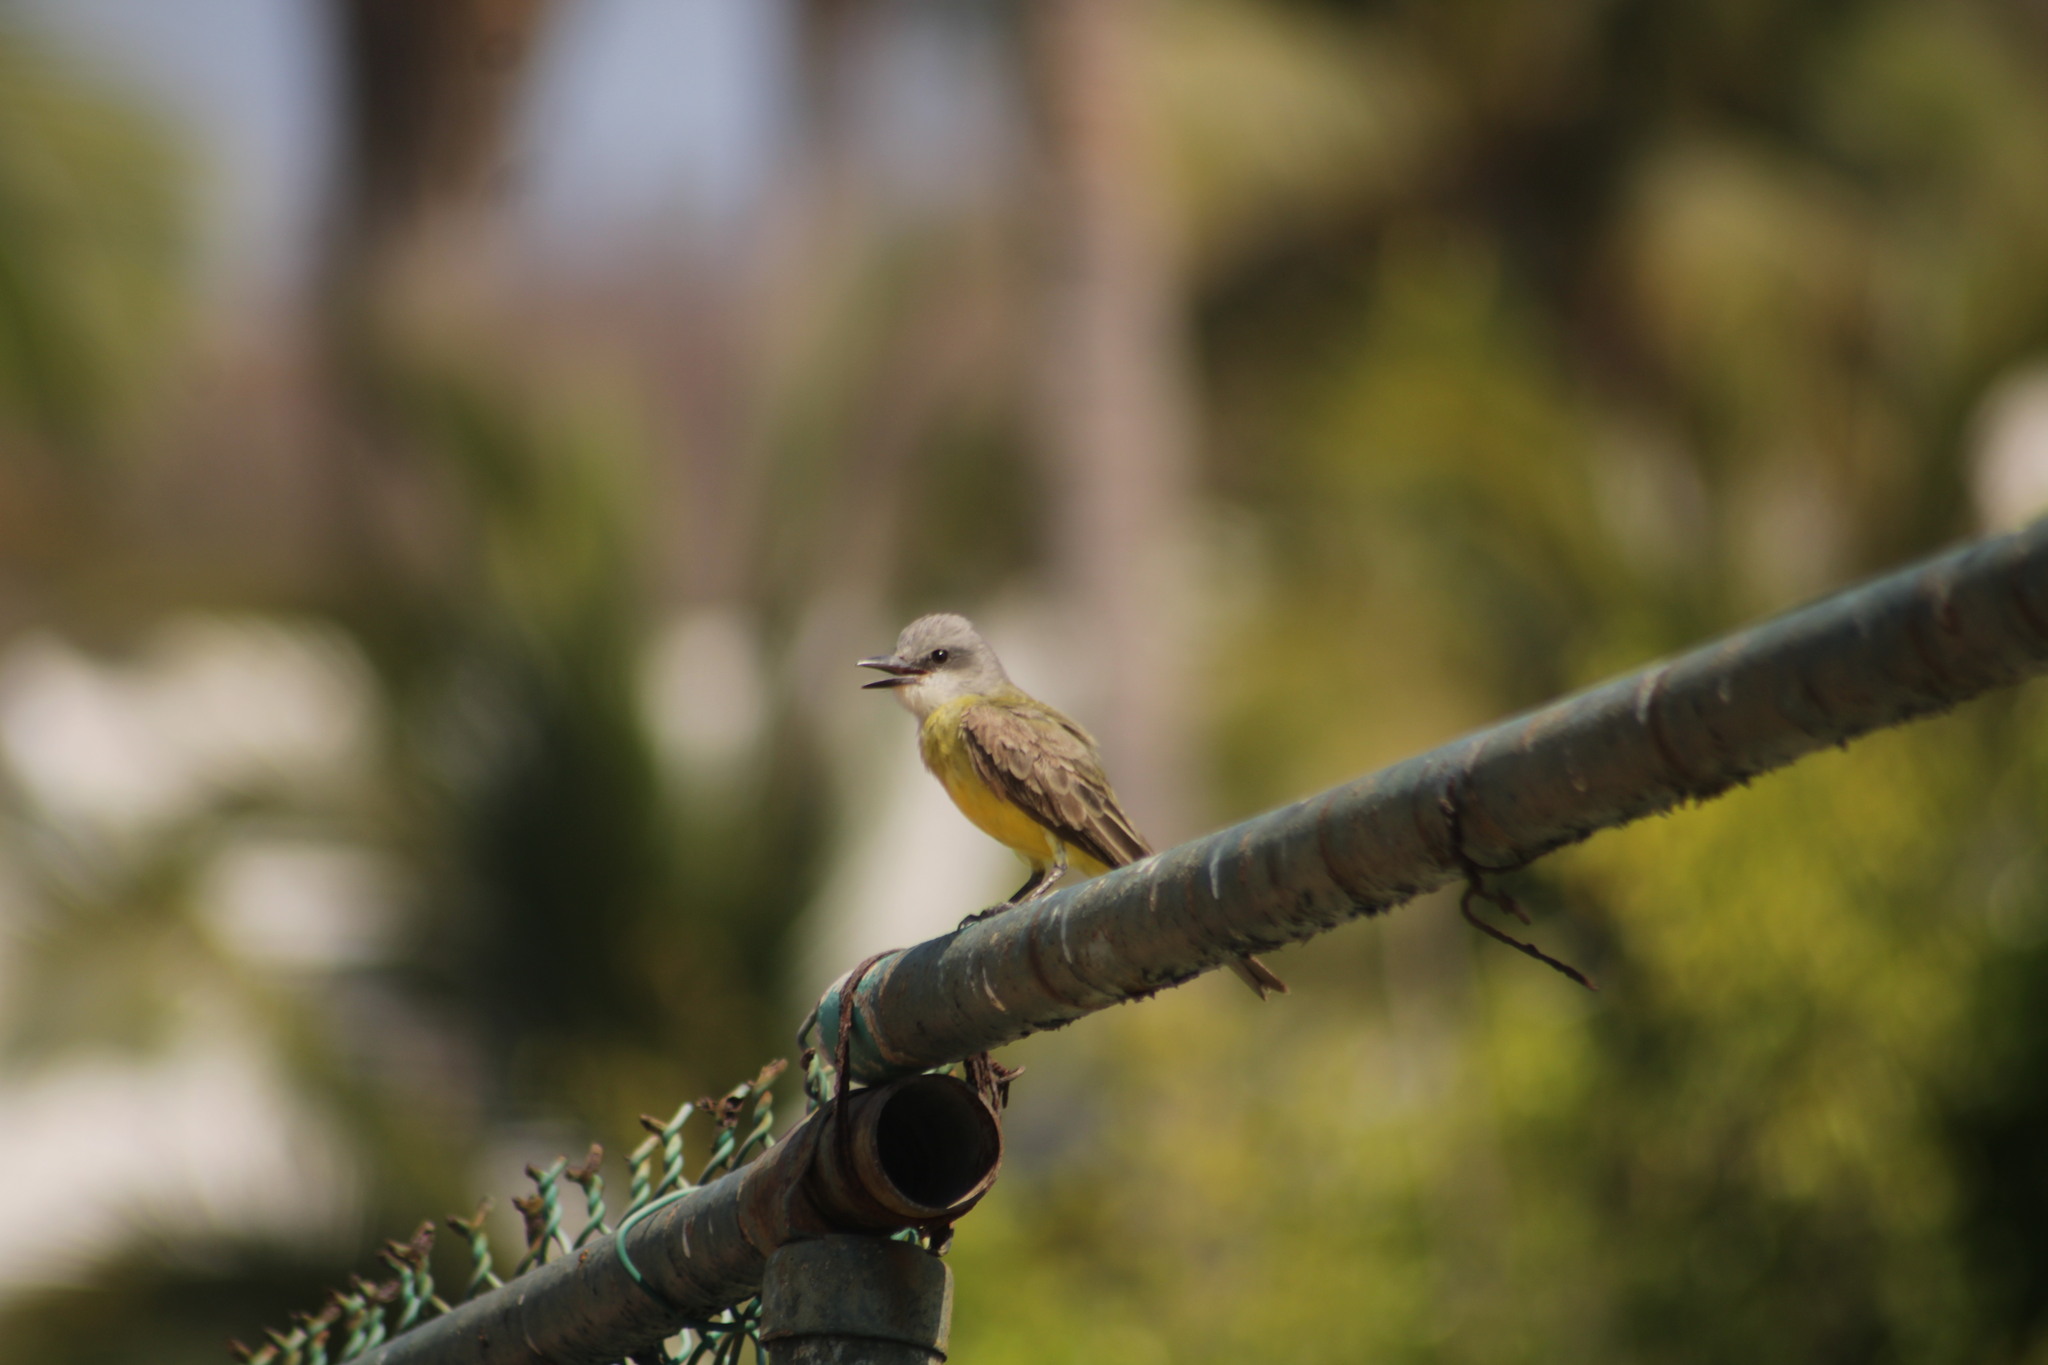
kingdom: Animalia
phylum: Chordata
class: Aves
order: Passeriformes
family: Tyrannidae
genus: Tyrannus
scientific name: Tyrannus melancholicus
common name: Tropical kingbird
